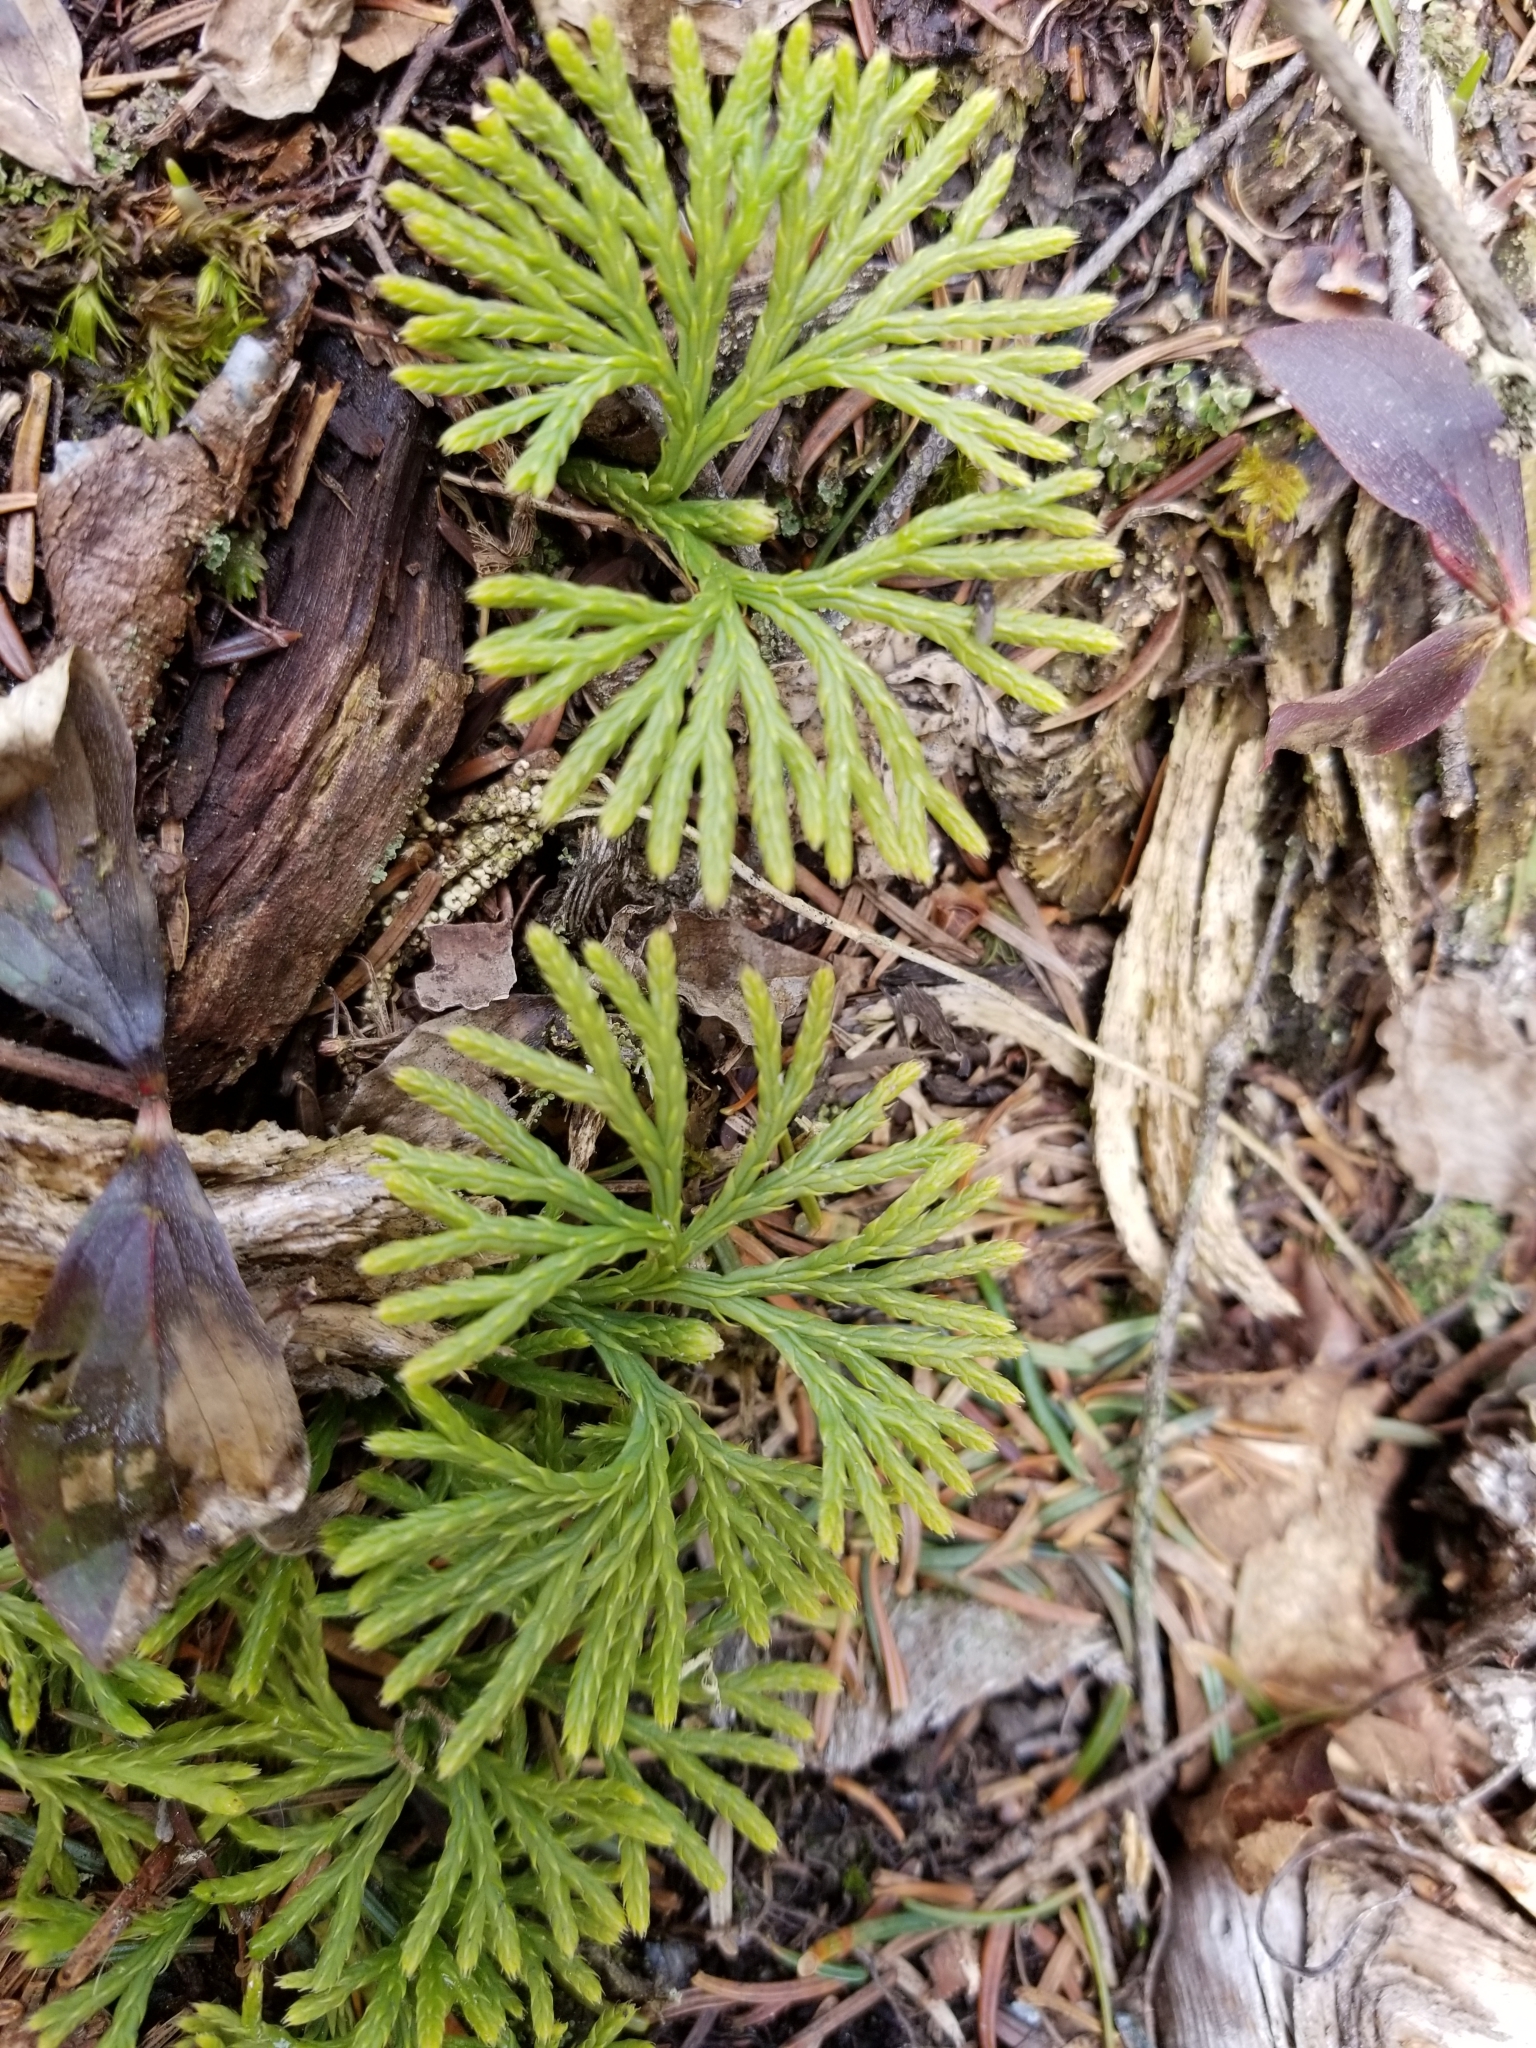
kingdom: Plantae
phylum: Tracheophyta
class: Lycopodiopsida
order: Lycopodiales
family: Lycopodiaceae
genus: Diphasiastrum
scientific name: Diphasiastrum digitatum
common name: Southern running-pine
